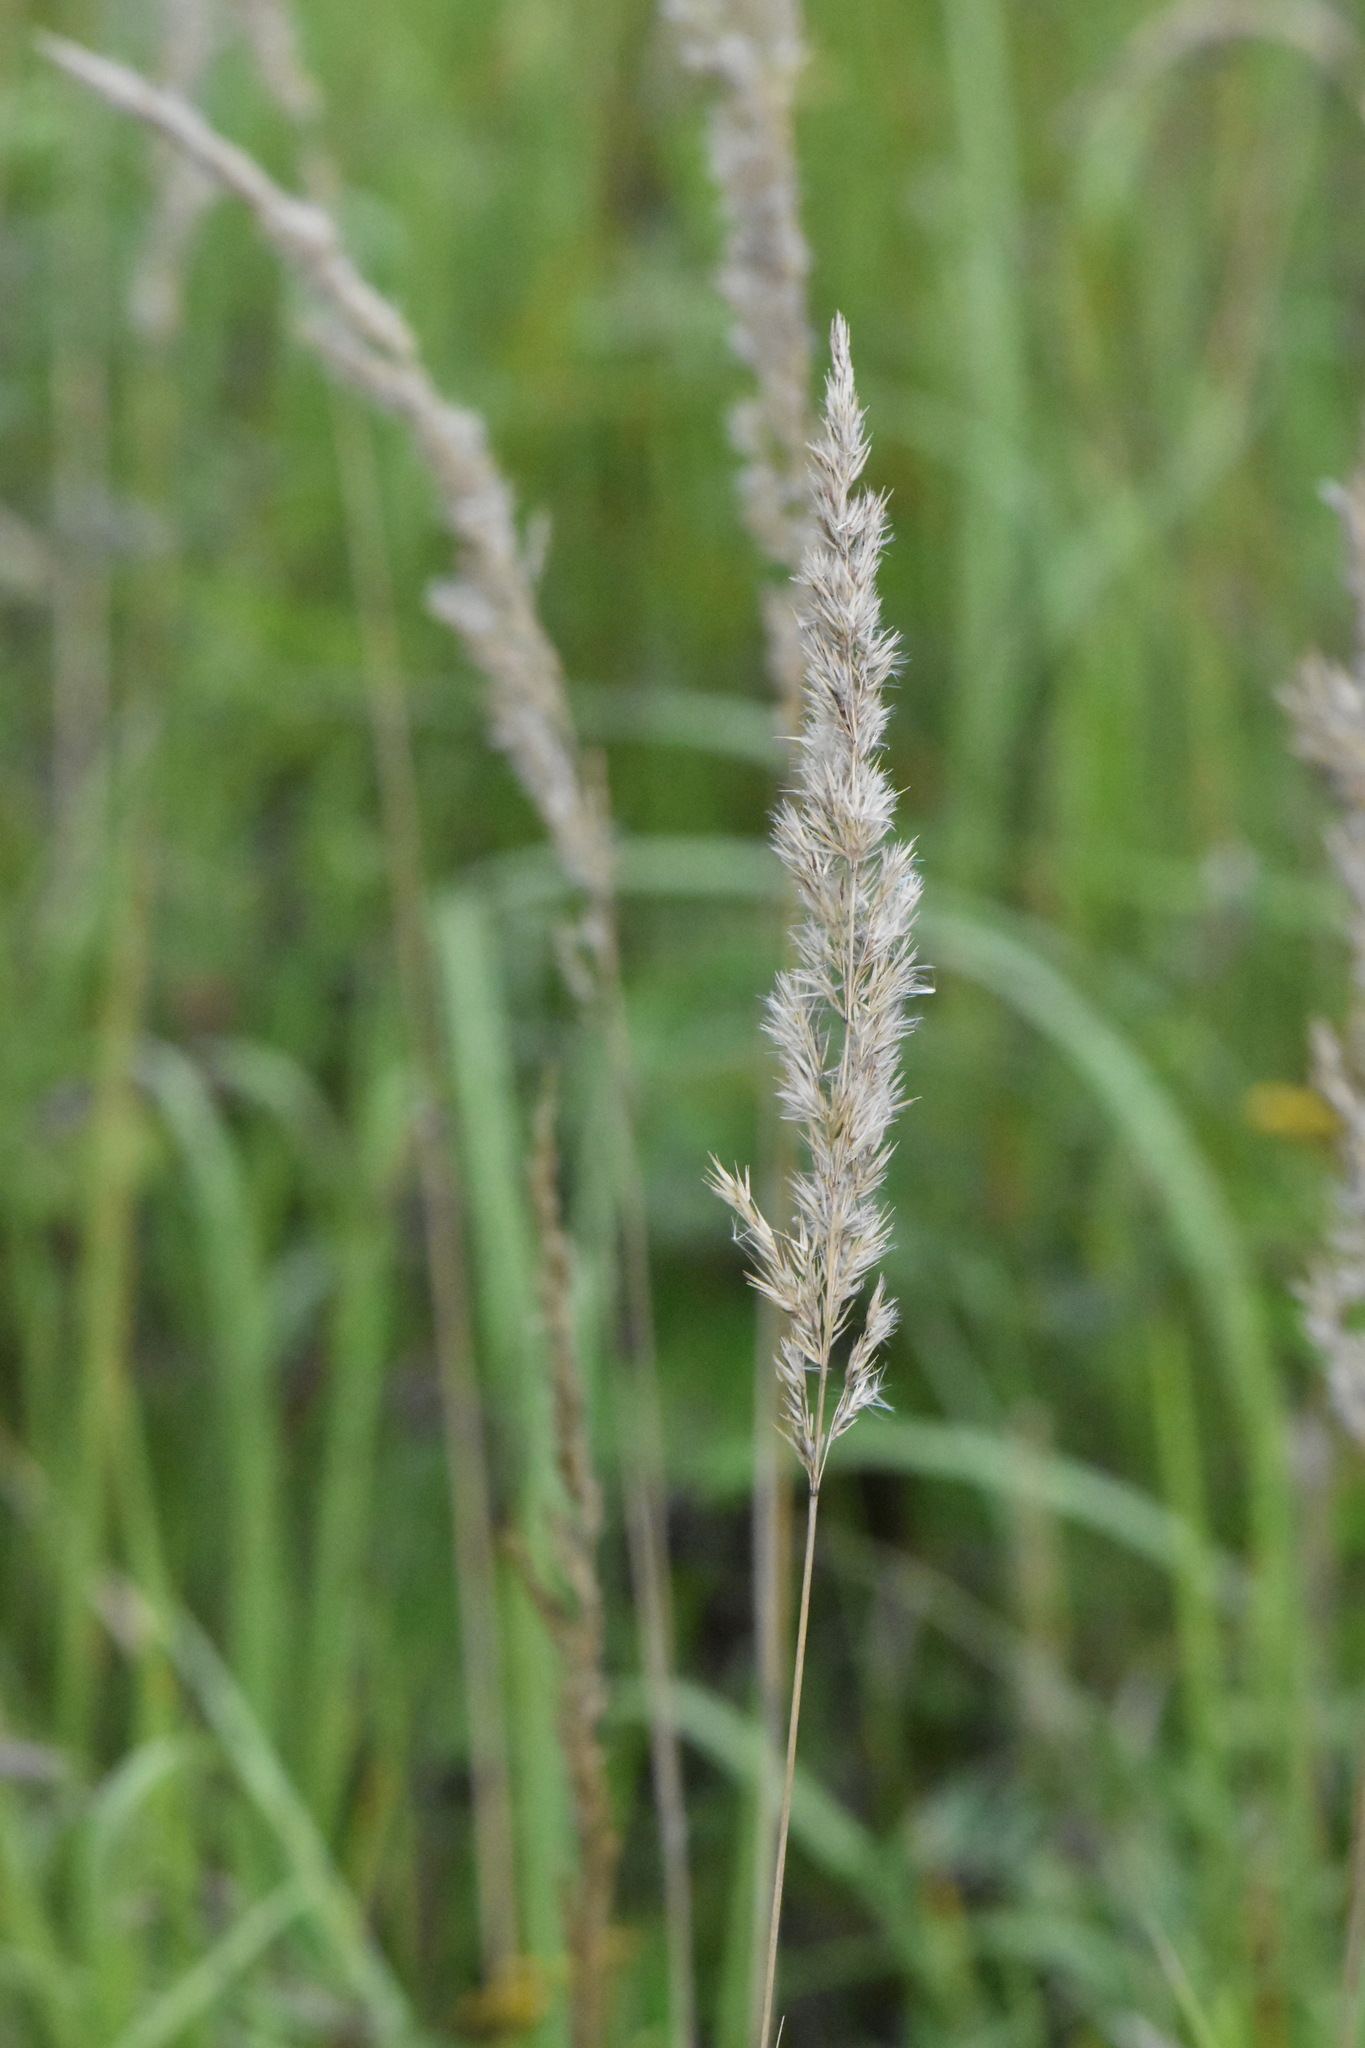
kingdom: Plantae
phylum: Tracheophyta
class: Liliopsida
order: Poales
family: Poaceae
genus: Calamagrostis
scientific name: Calamagrostis epigejos
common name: Wood small-reed
